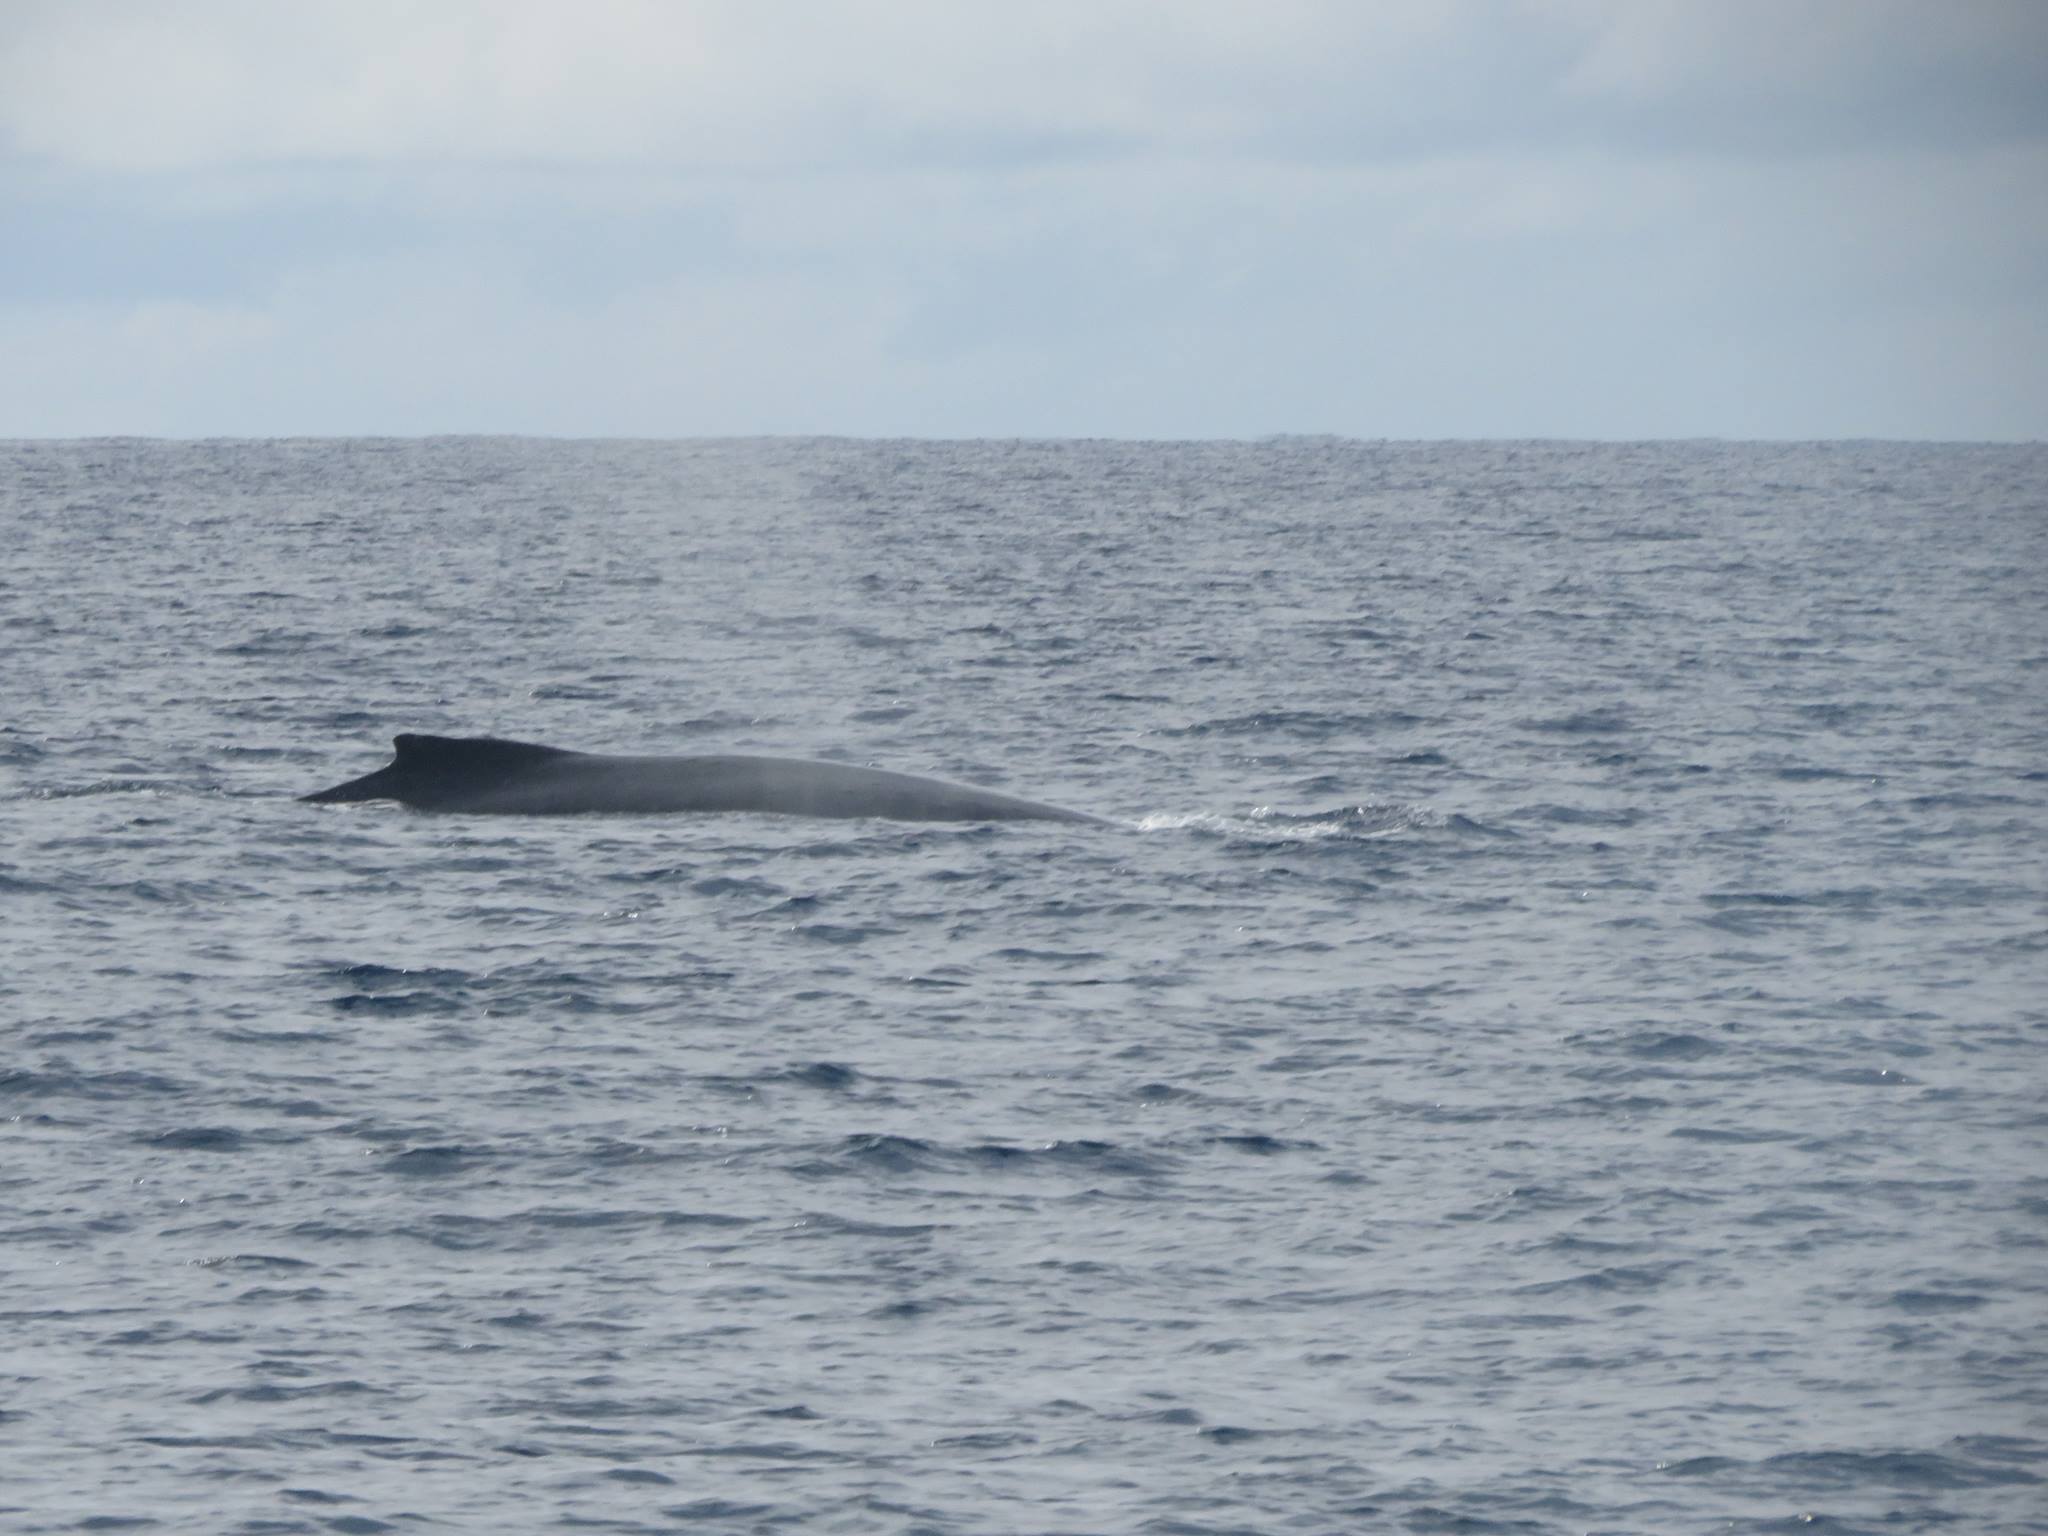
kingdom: Animalia
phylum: Chordata
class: Mammalia
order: Cetacea
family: Balaenopteridae
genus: Megaptera
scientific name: Megaptera novaeangliae
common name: Humpback whale
